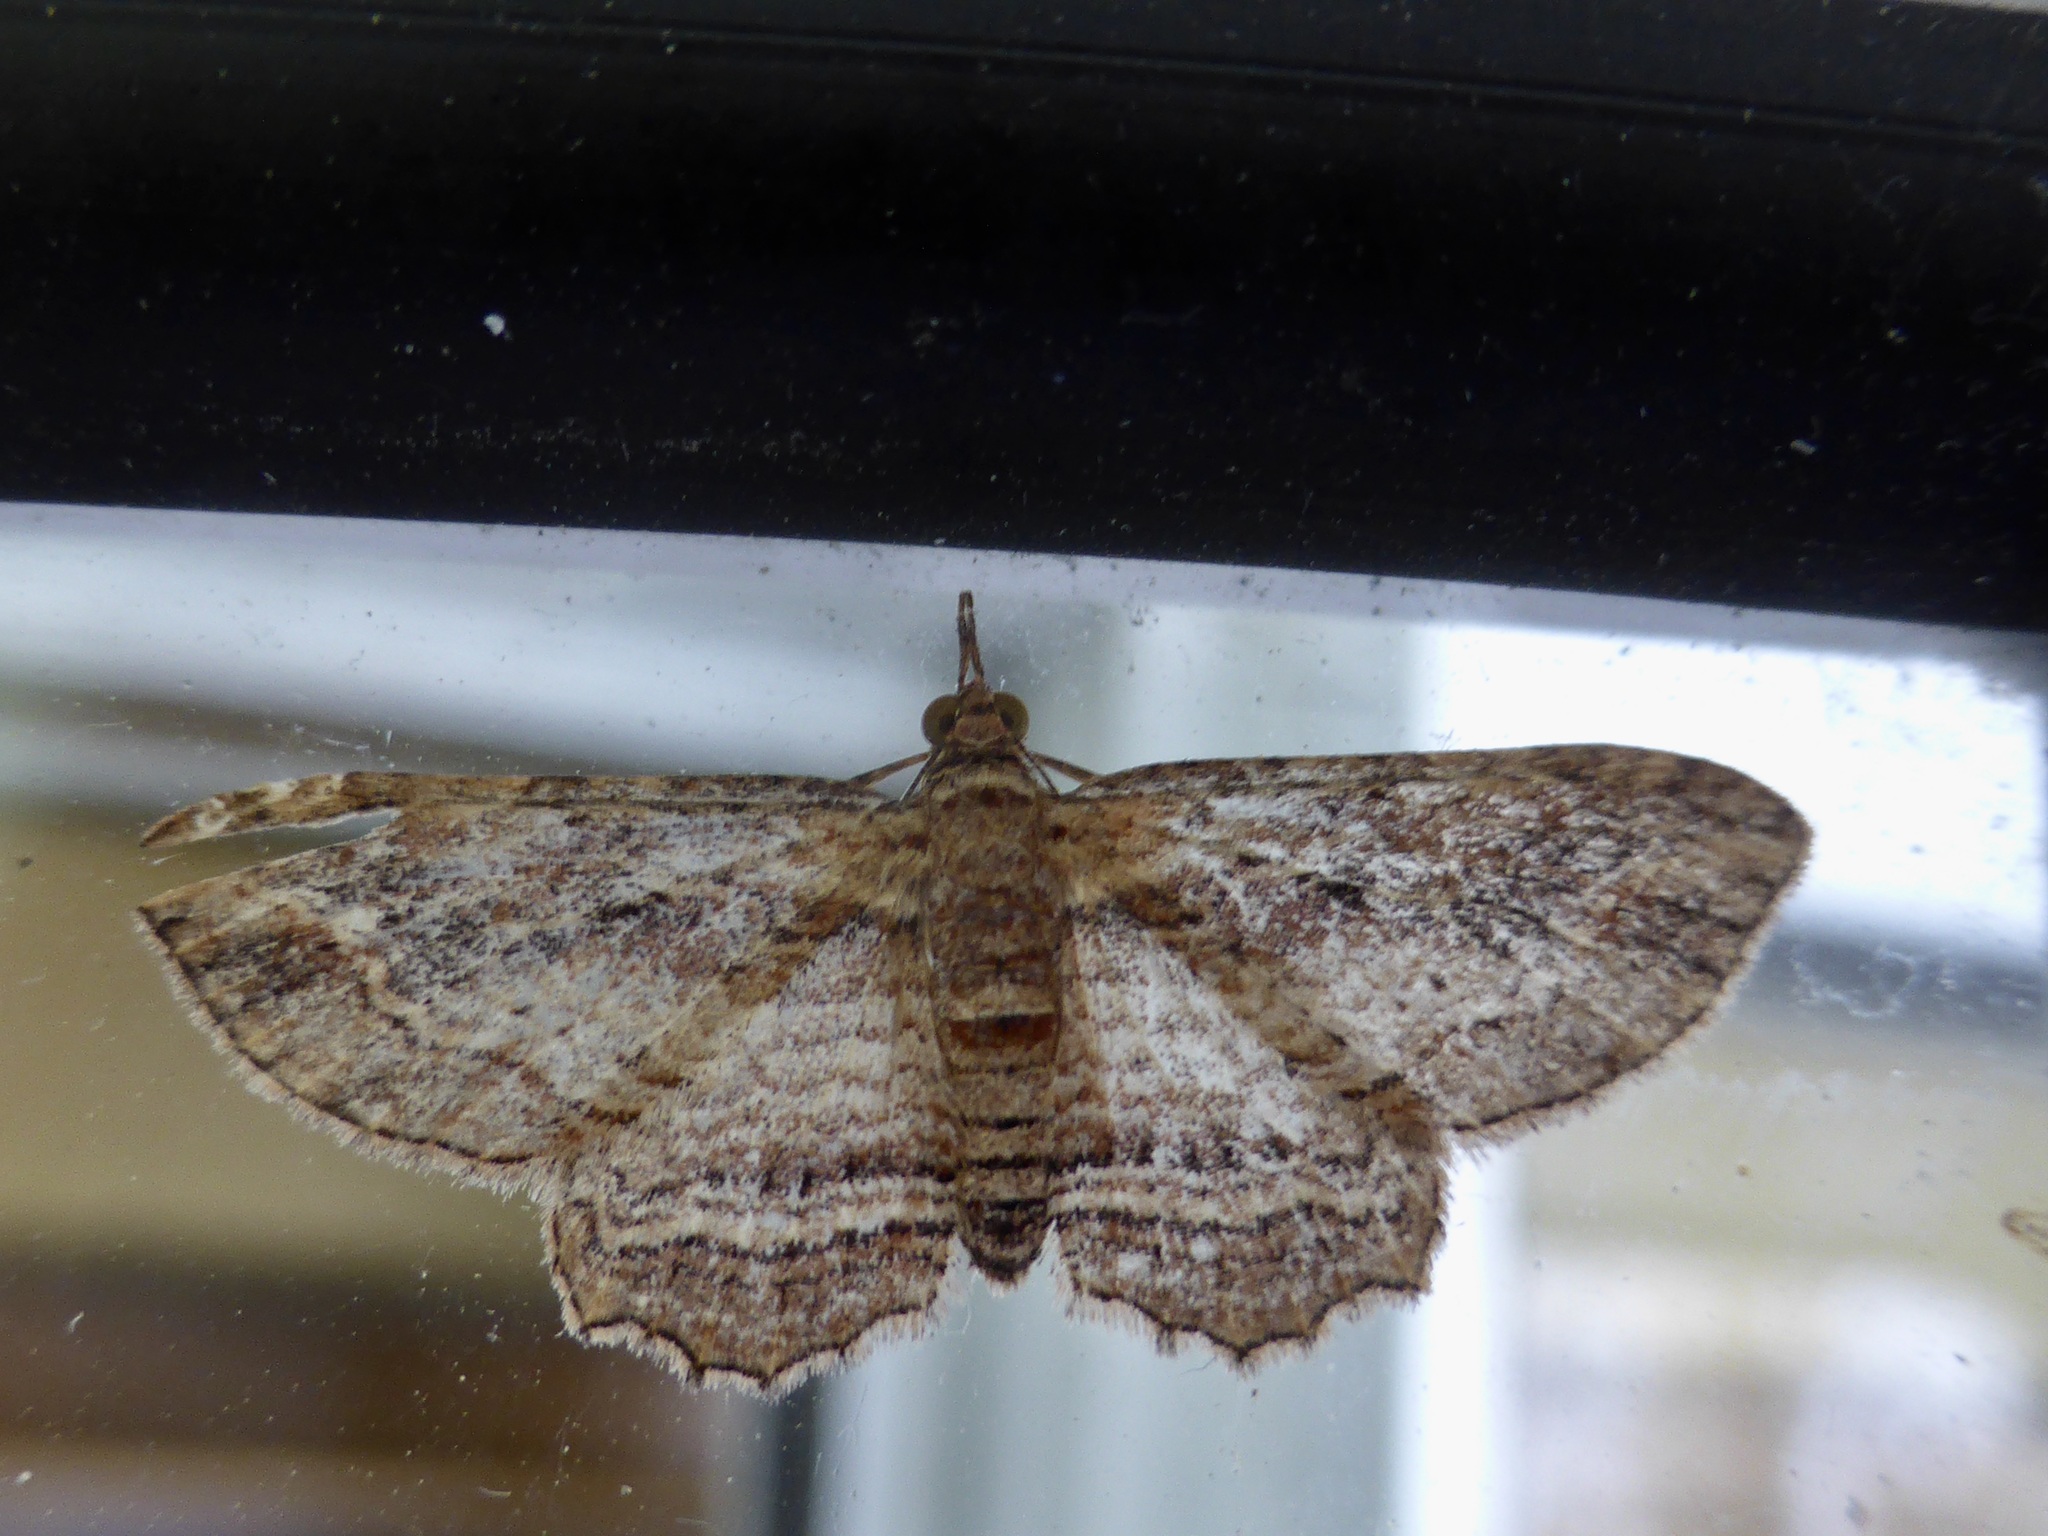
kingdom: Animalia
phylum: Arthropoda
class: Insecta
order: Lepidoptera
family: Geometridae
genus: Chloroclystis
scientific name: Chloroclystis filata
